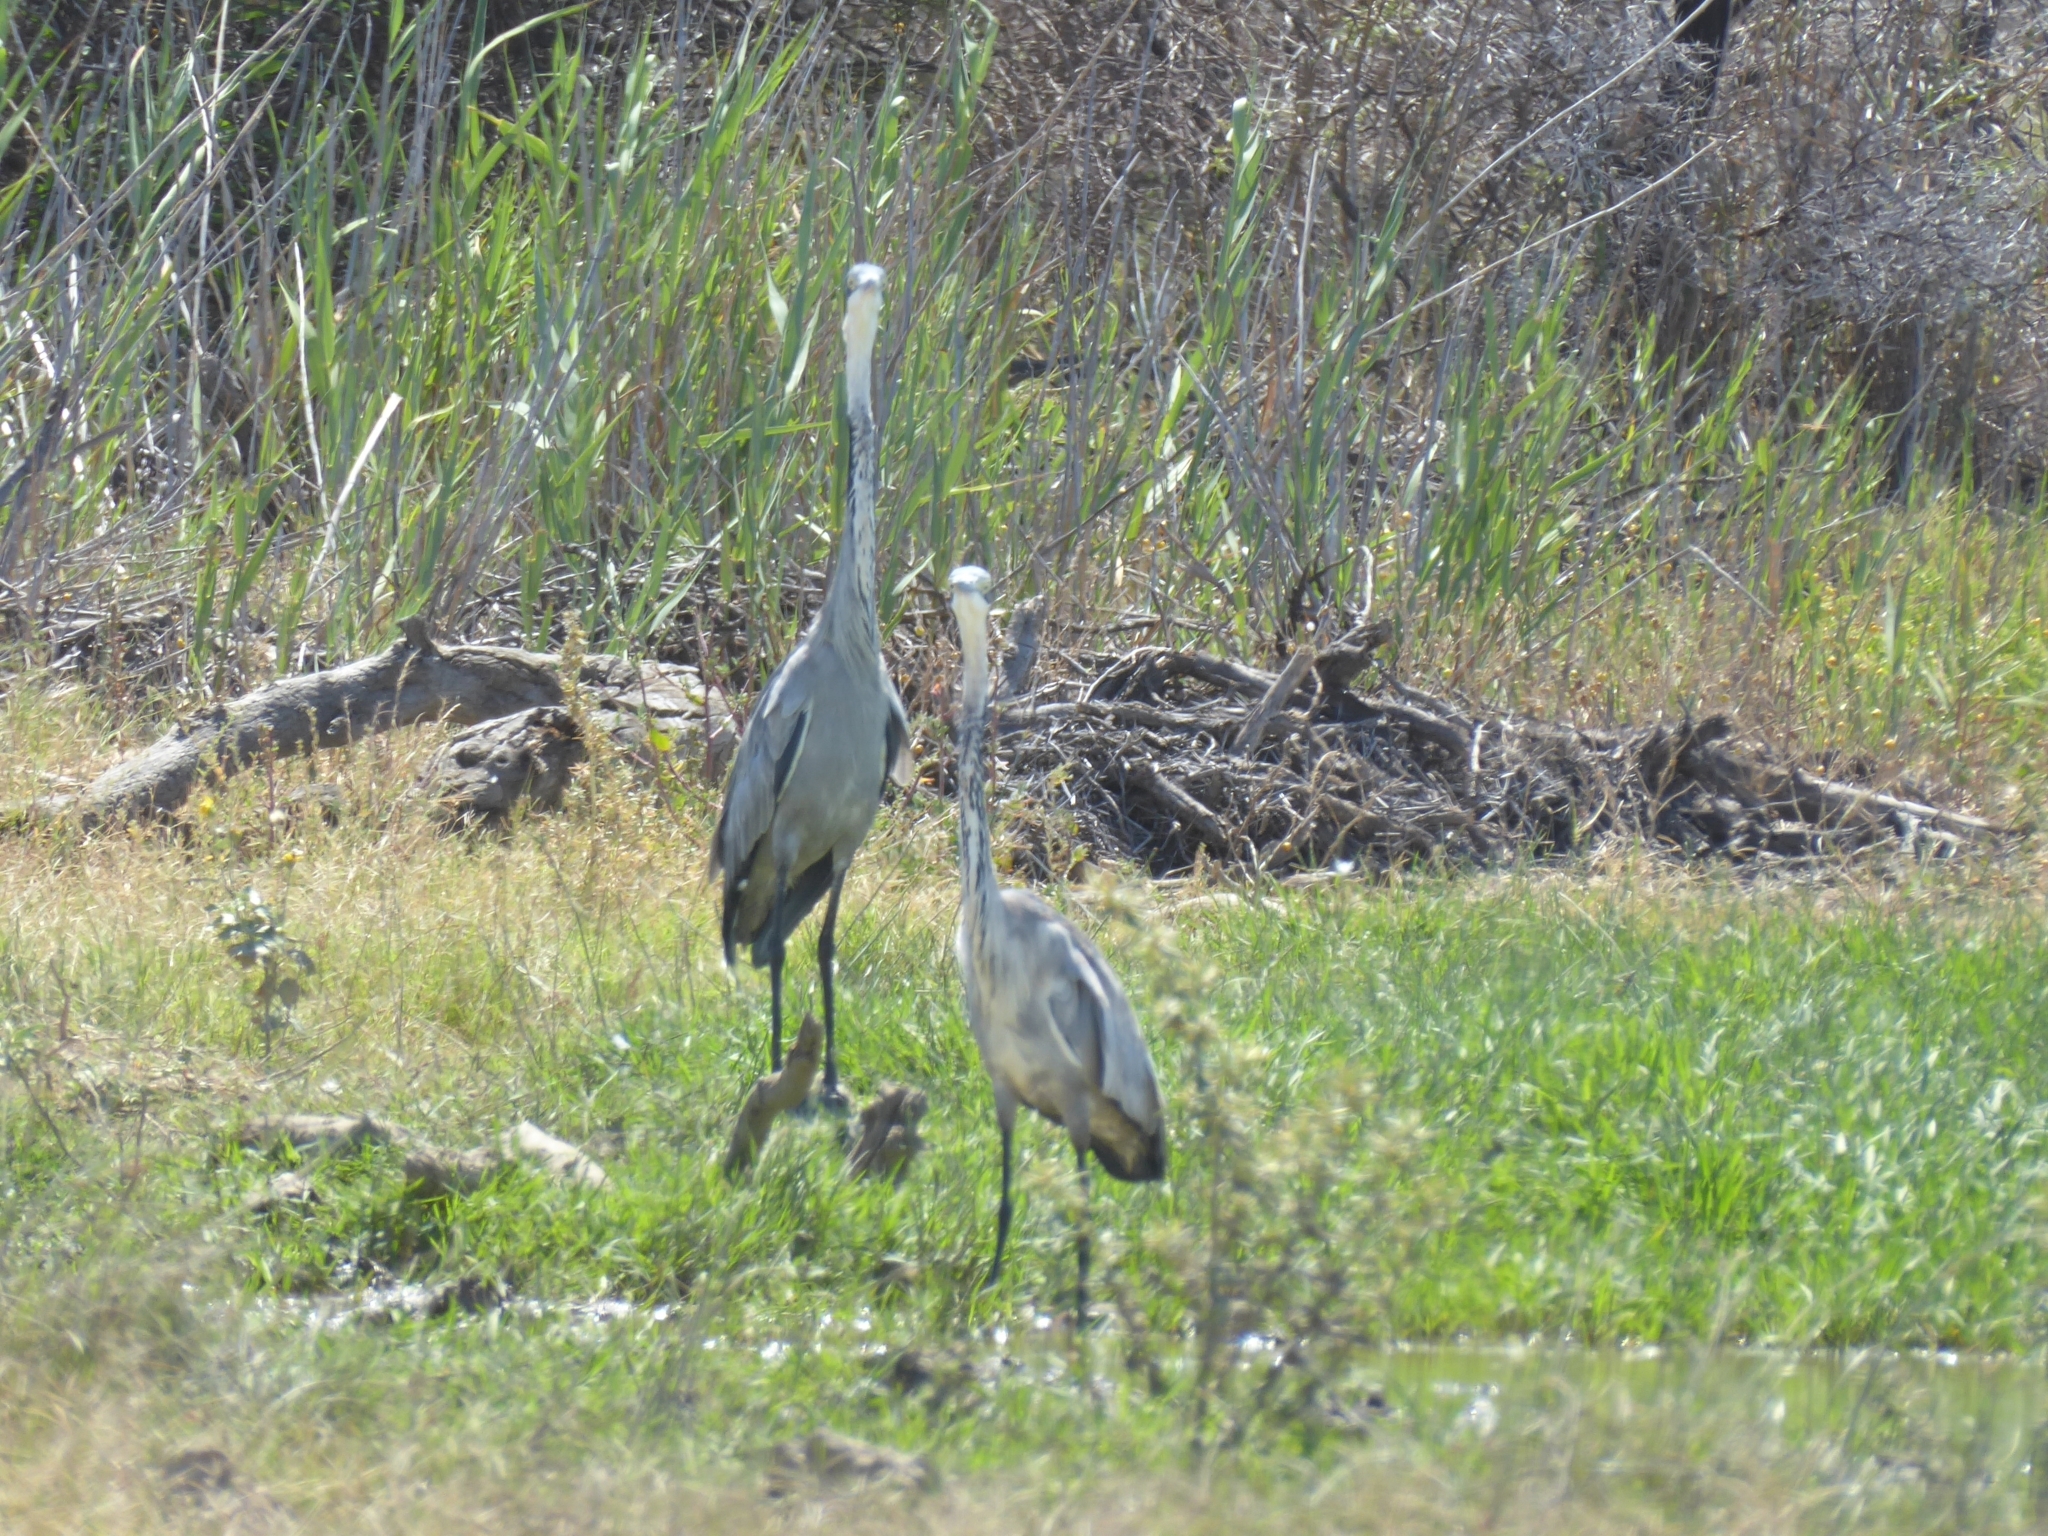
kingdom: Animalia
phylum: Chordata
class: Aves
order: Pelecaniformes
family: Ardeidae
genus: Ardea
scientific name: Ardea melanocephala
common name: Black-headed heron
